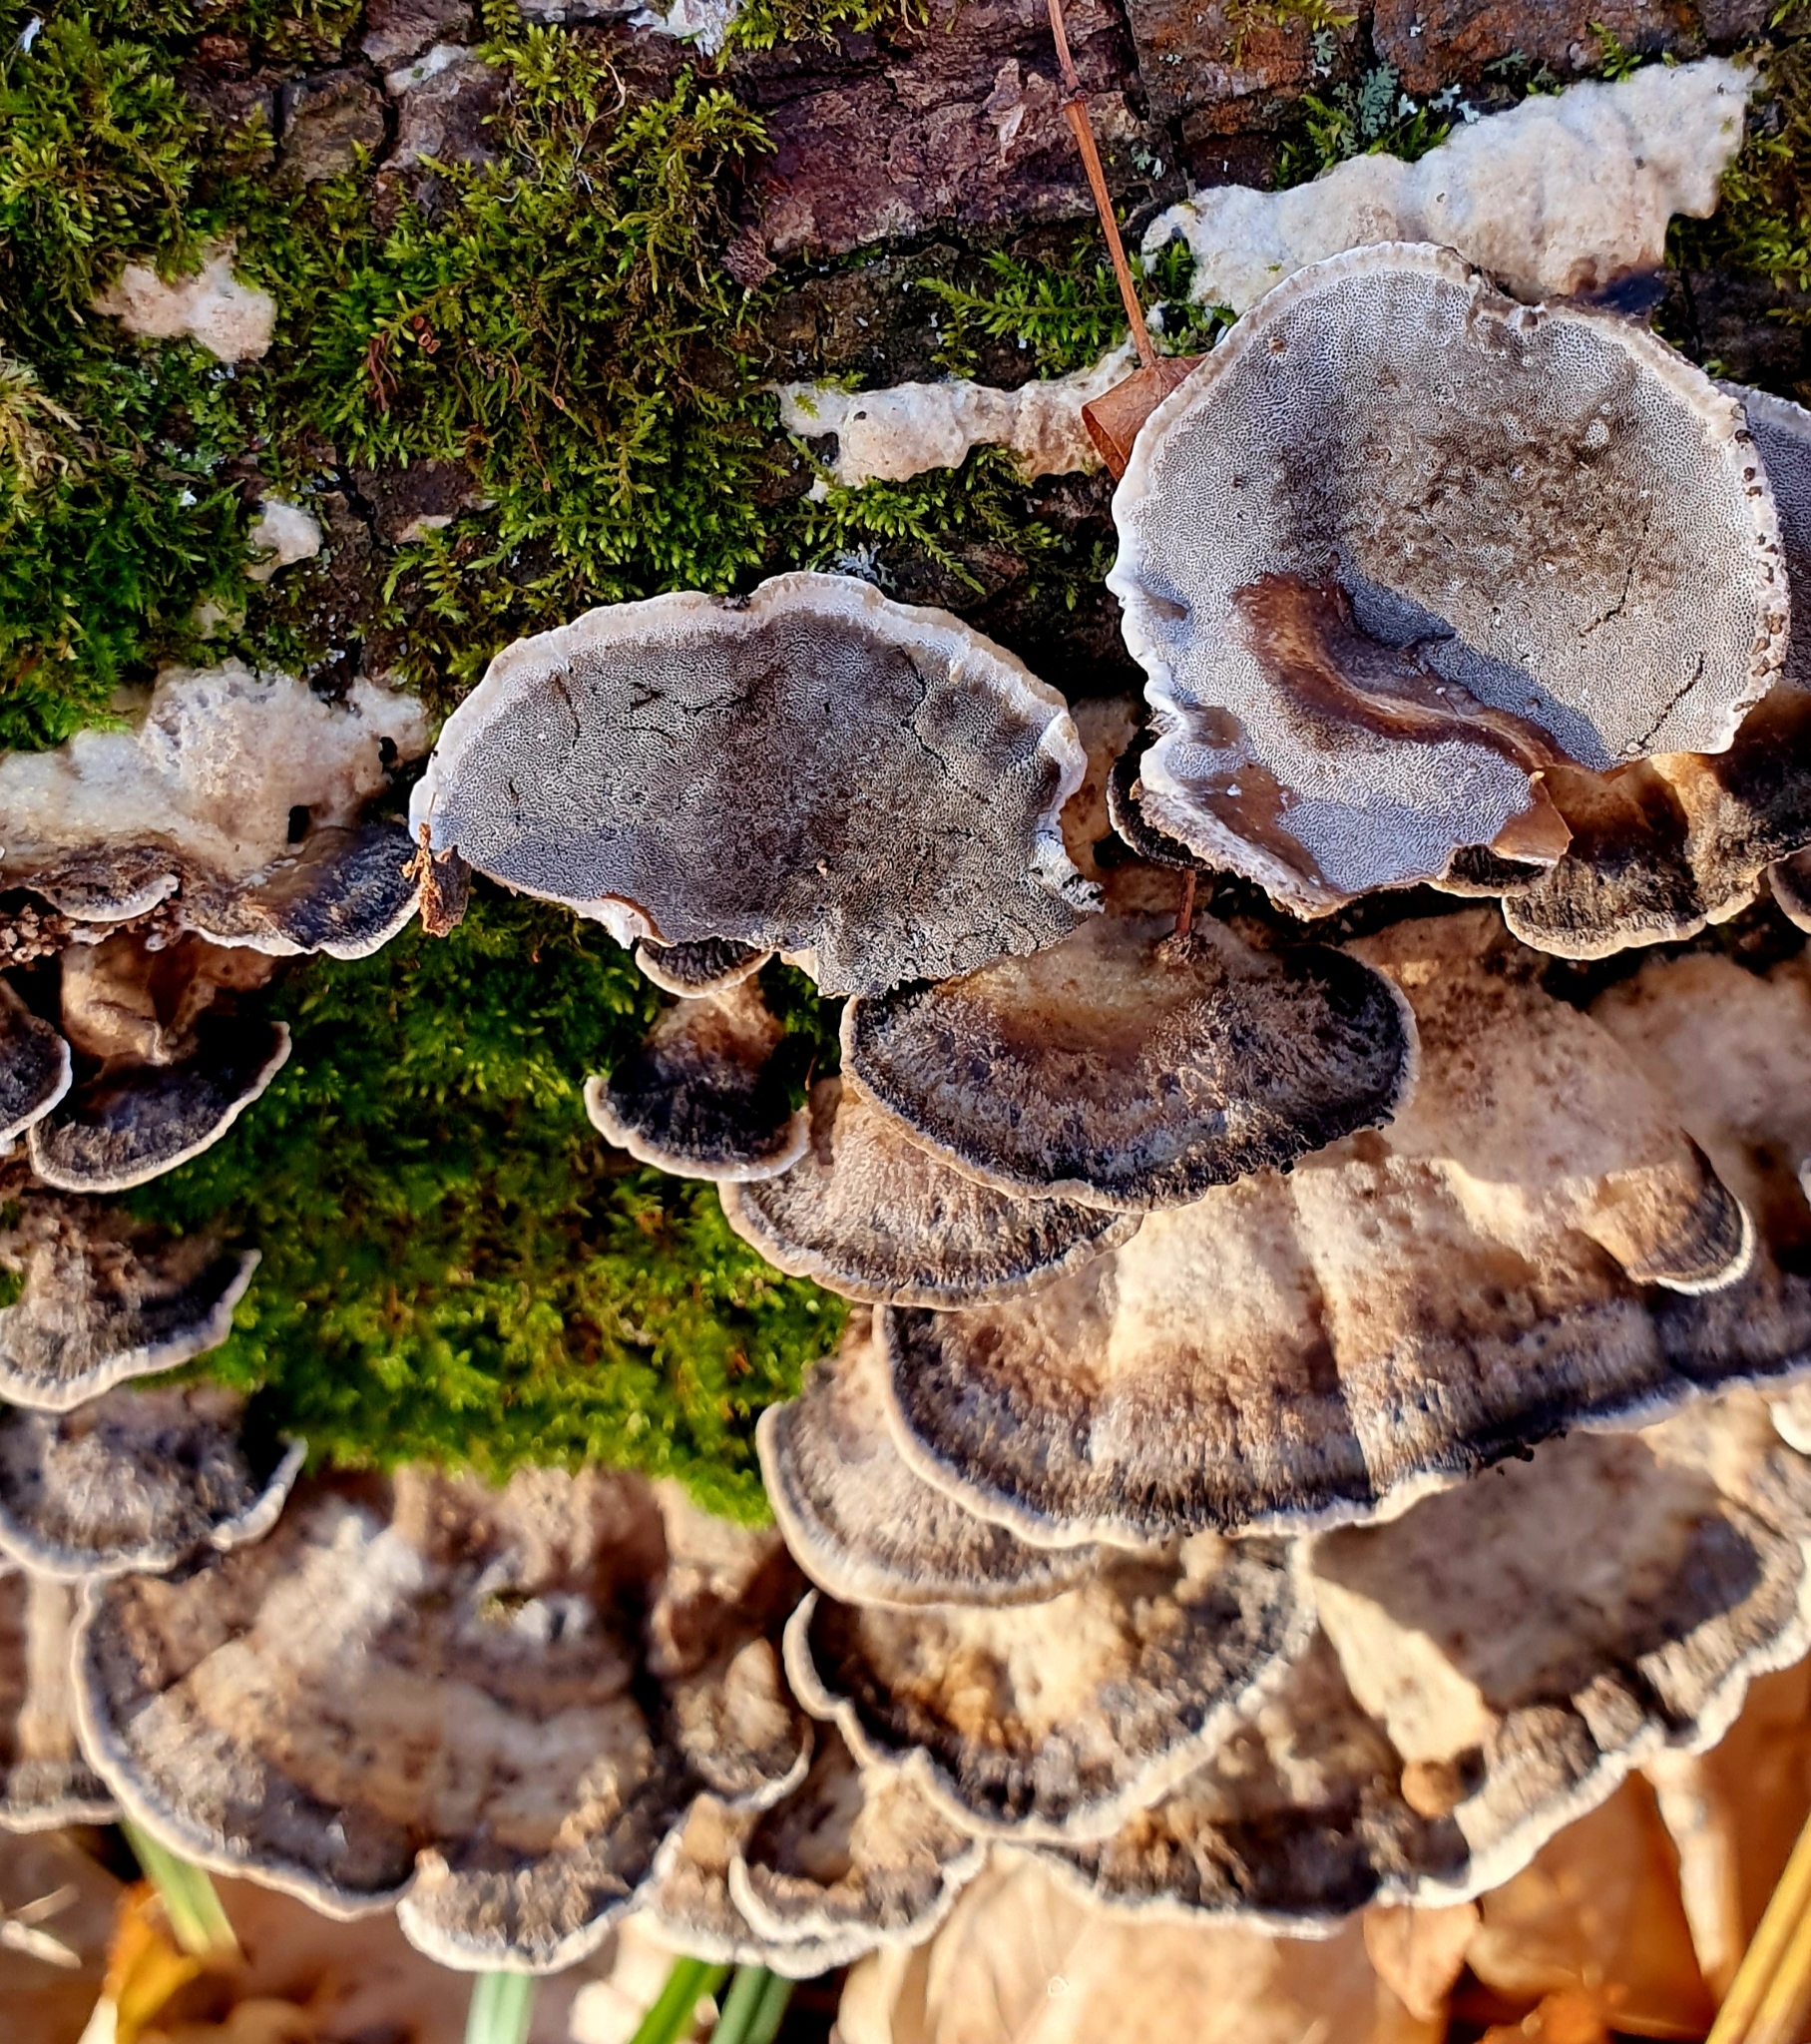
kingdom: Fungi
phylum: Basidiomycota
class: Agaricomycetes
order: Polyporales
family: Phanerochaetaceae
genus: Bjerkandera
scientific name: Bjerkandera adusta
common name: Smoky bracket
